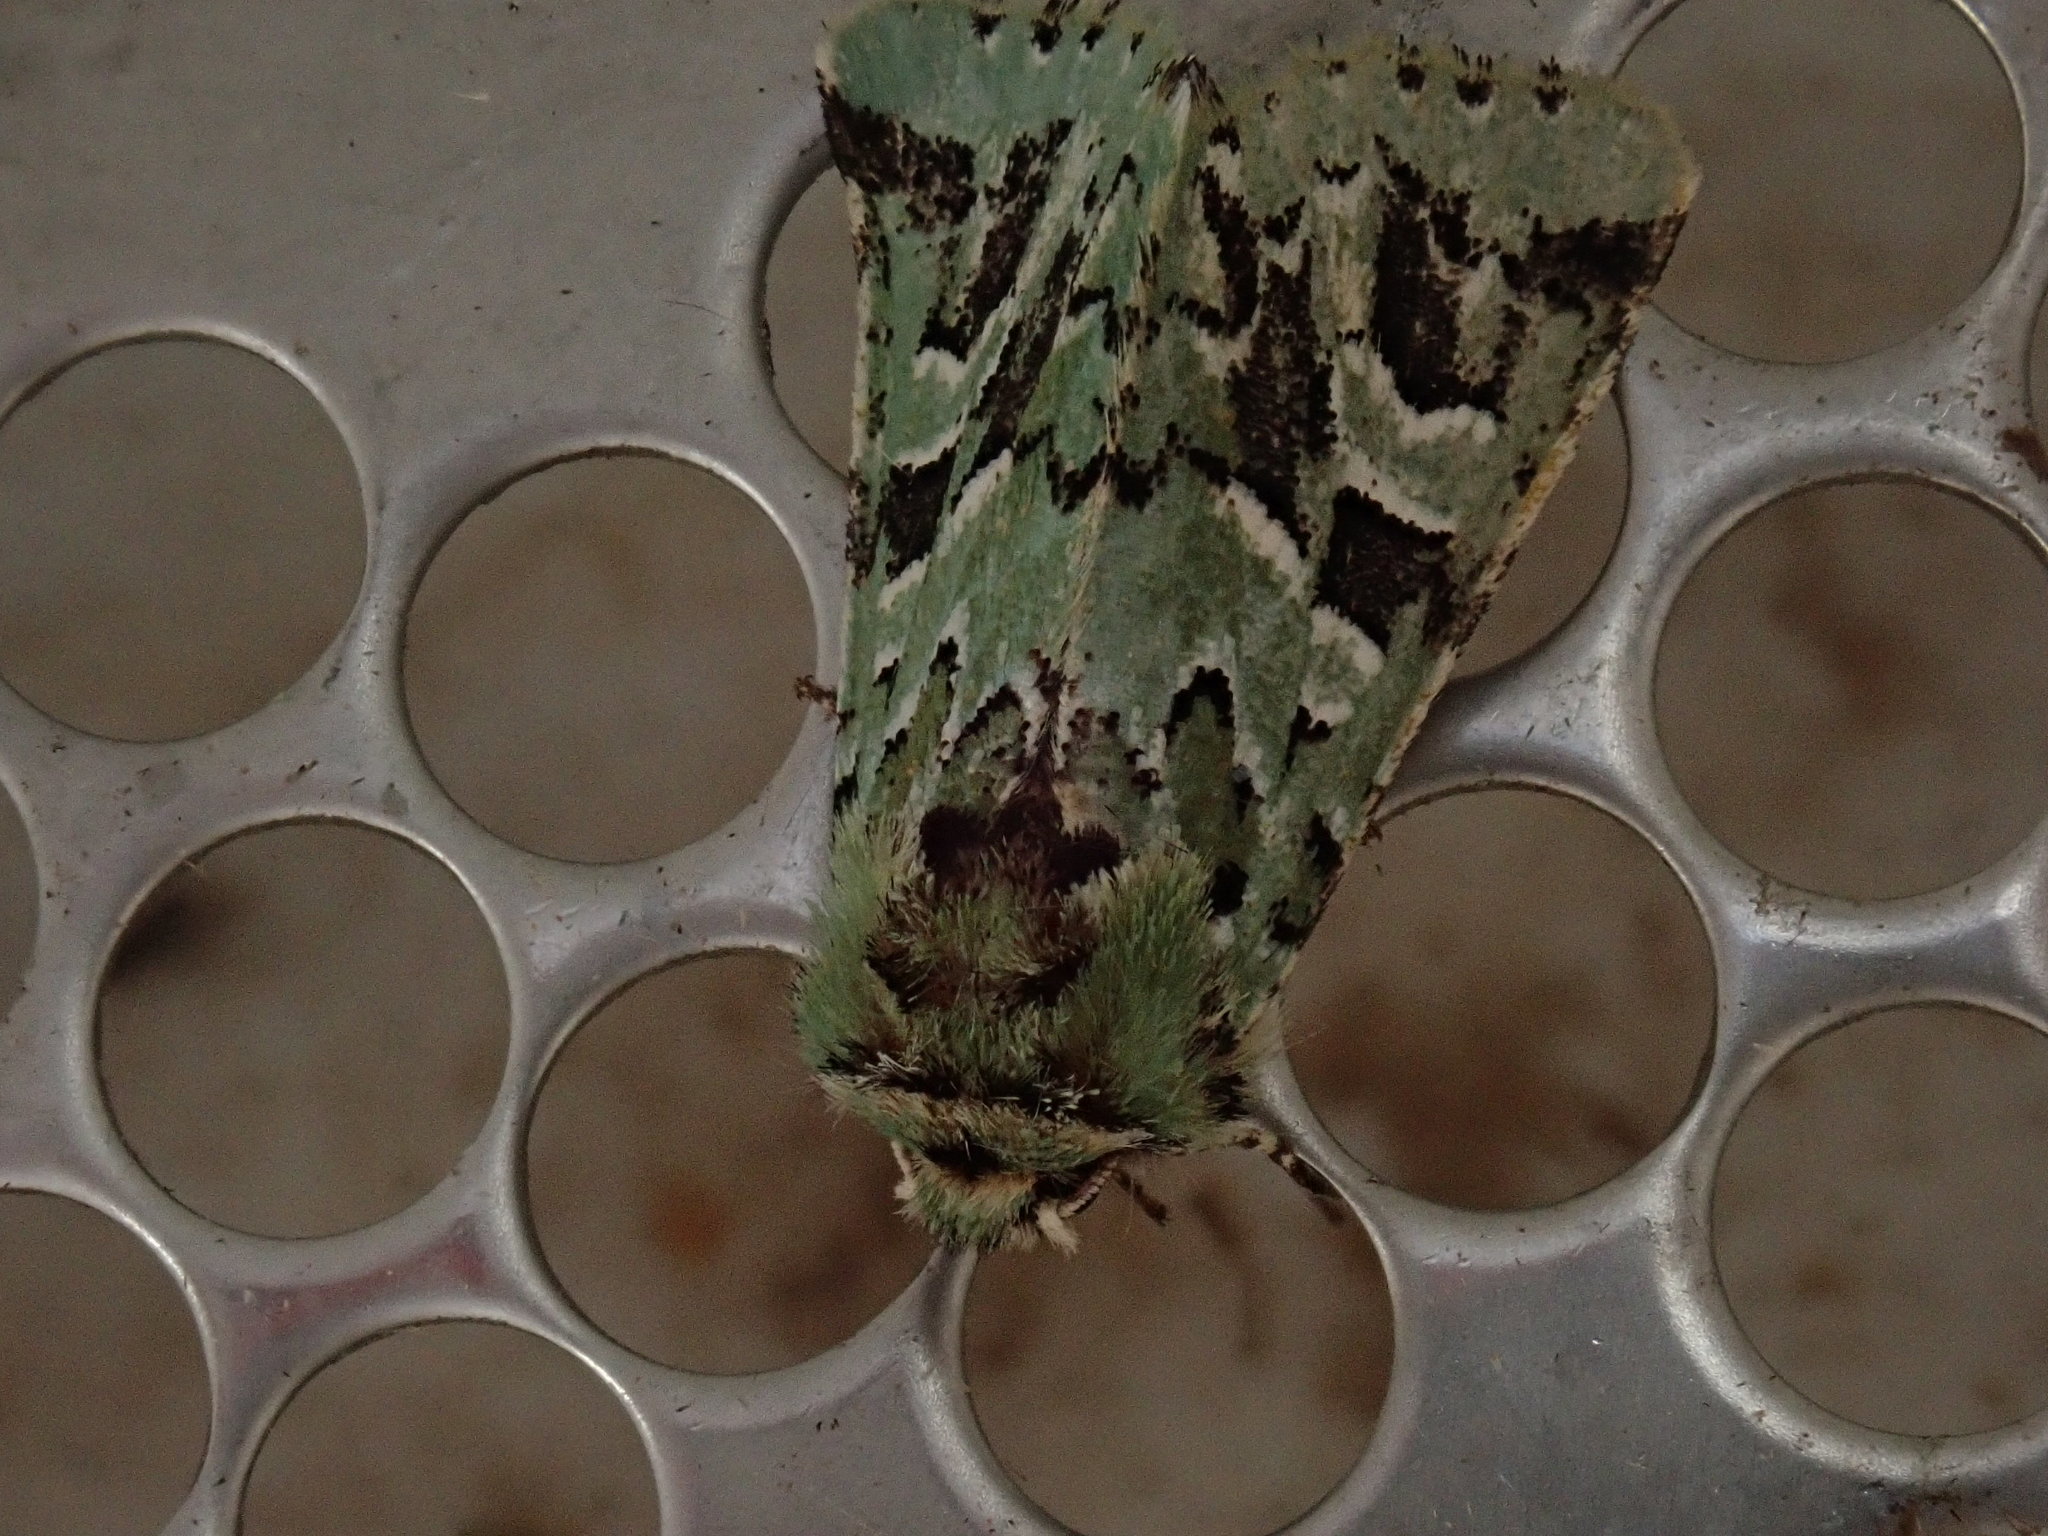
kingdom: Animalia
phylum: Arthropoda
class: Insecta
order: Lepidoptera
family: Noctuidae
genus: Feralia
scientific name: Feralia comstocki
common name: Comstock's sallow
